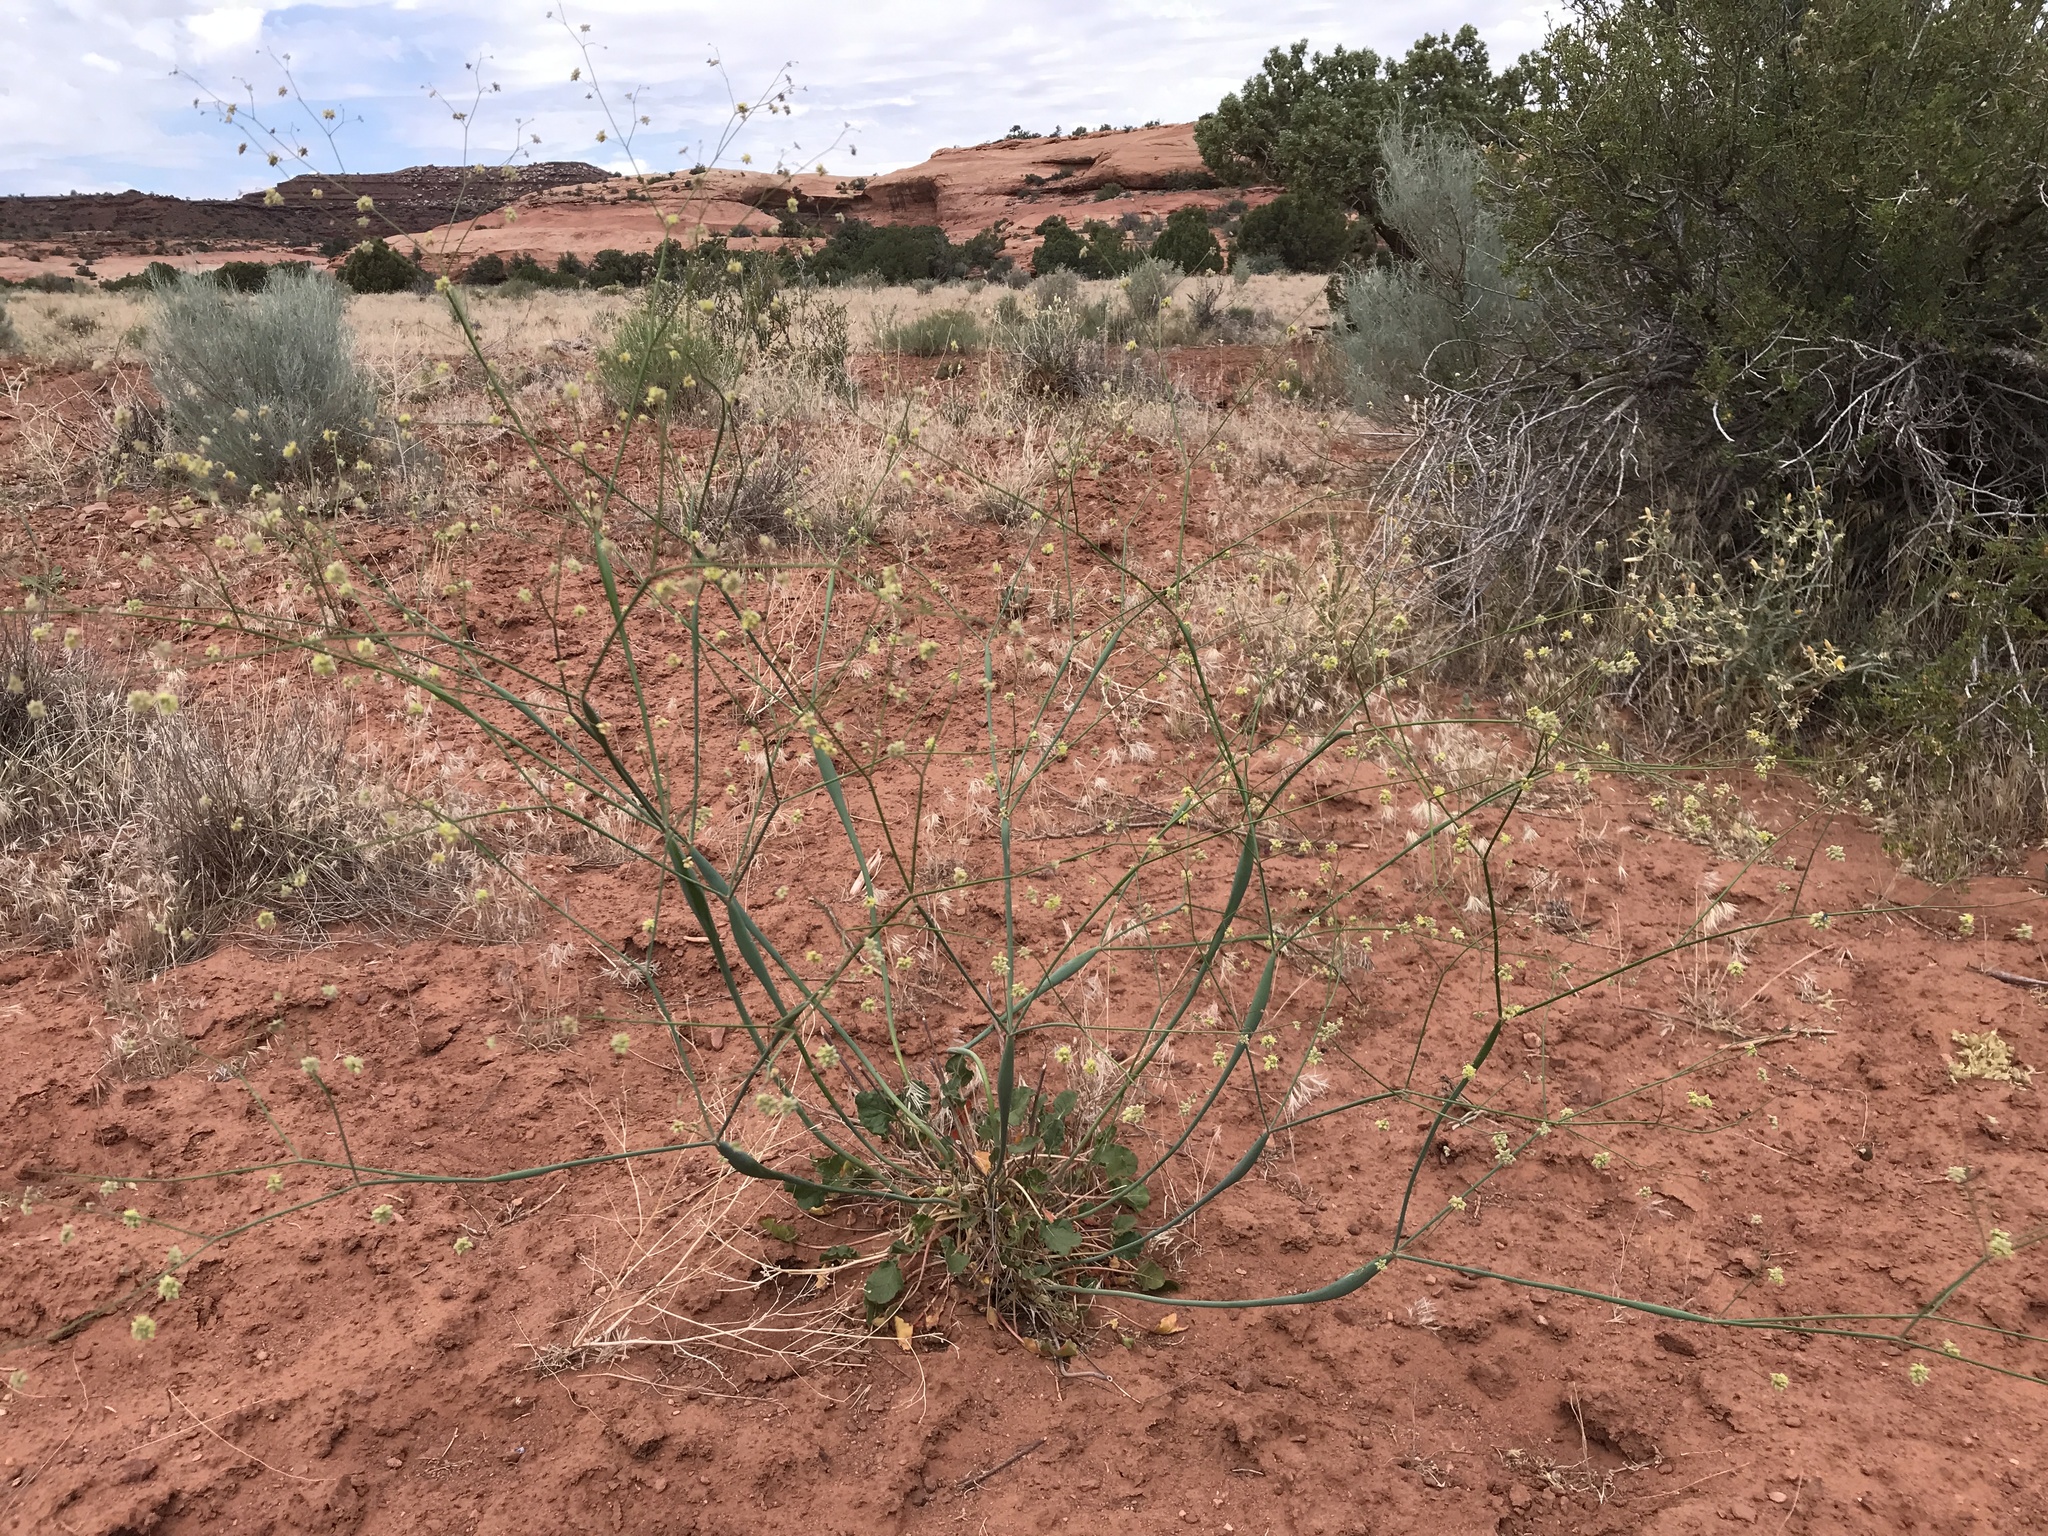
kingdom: Plantae
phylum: Tracheophyta
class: Magnoliopsida
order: Caryophyllales
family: Polygonaceae
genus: Eriogonum
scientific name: Eriogonum inflatum
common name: Desert trumpet
